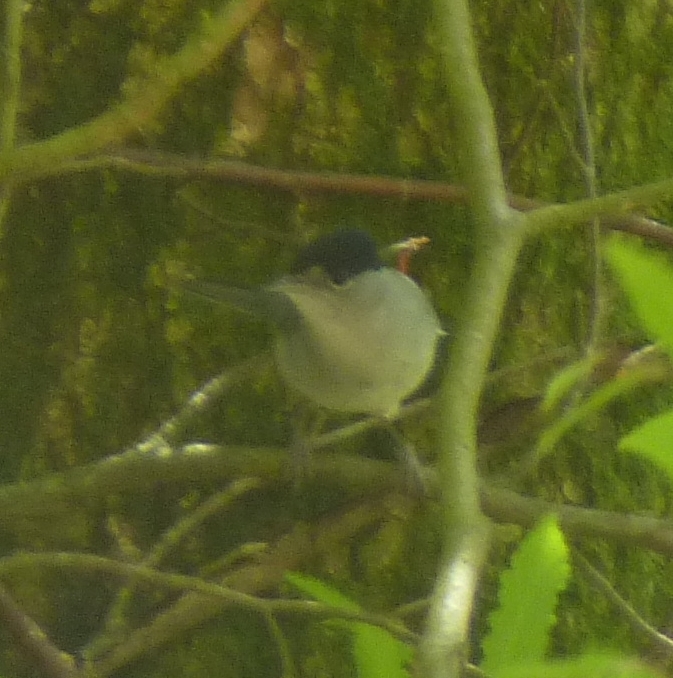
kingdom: Animalia
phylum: Chordata
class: Aves
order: Passeriformes
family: Sylviidae
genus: Sylvia
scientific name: Sylvia atricapilla
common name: Eurasian blackcap
